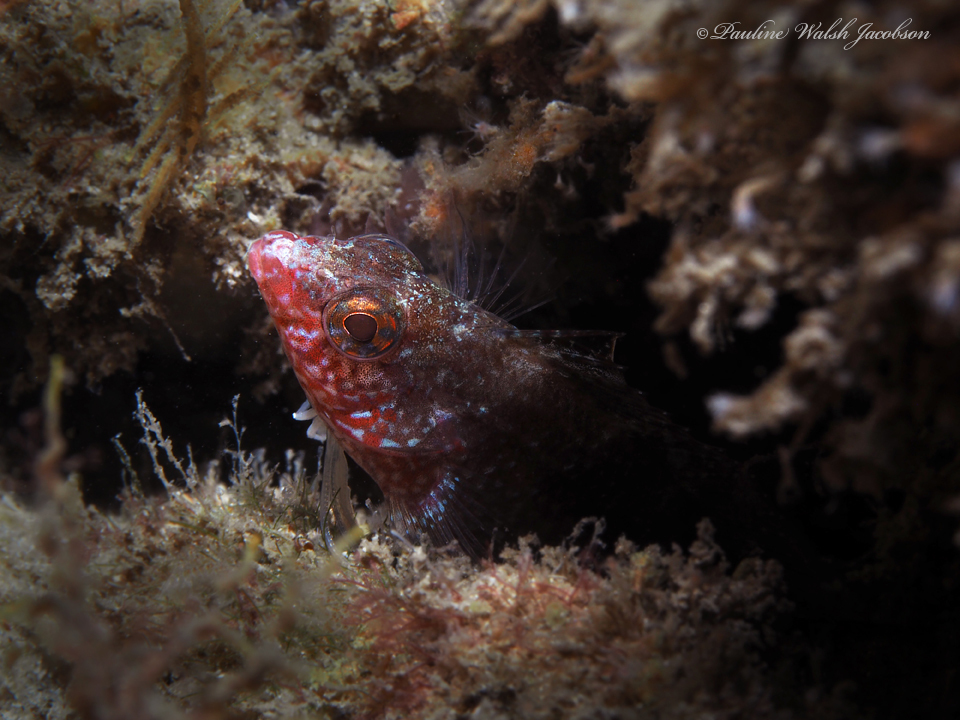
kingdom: Animalia
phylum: Chordata
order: Perciformes
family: Labrisomidae
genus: Malacoctenus
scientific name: Malacoctenus macropus
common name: Rosy blenny
